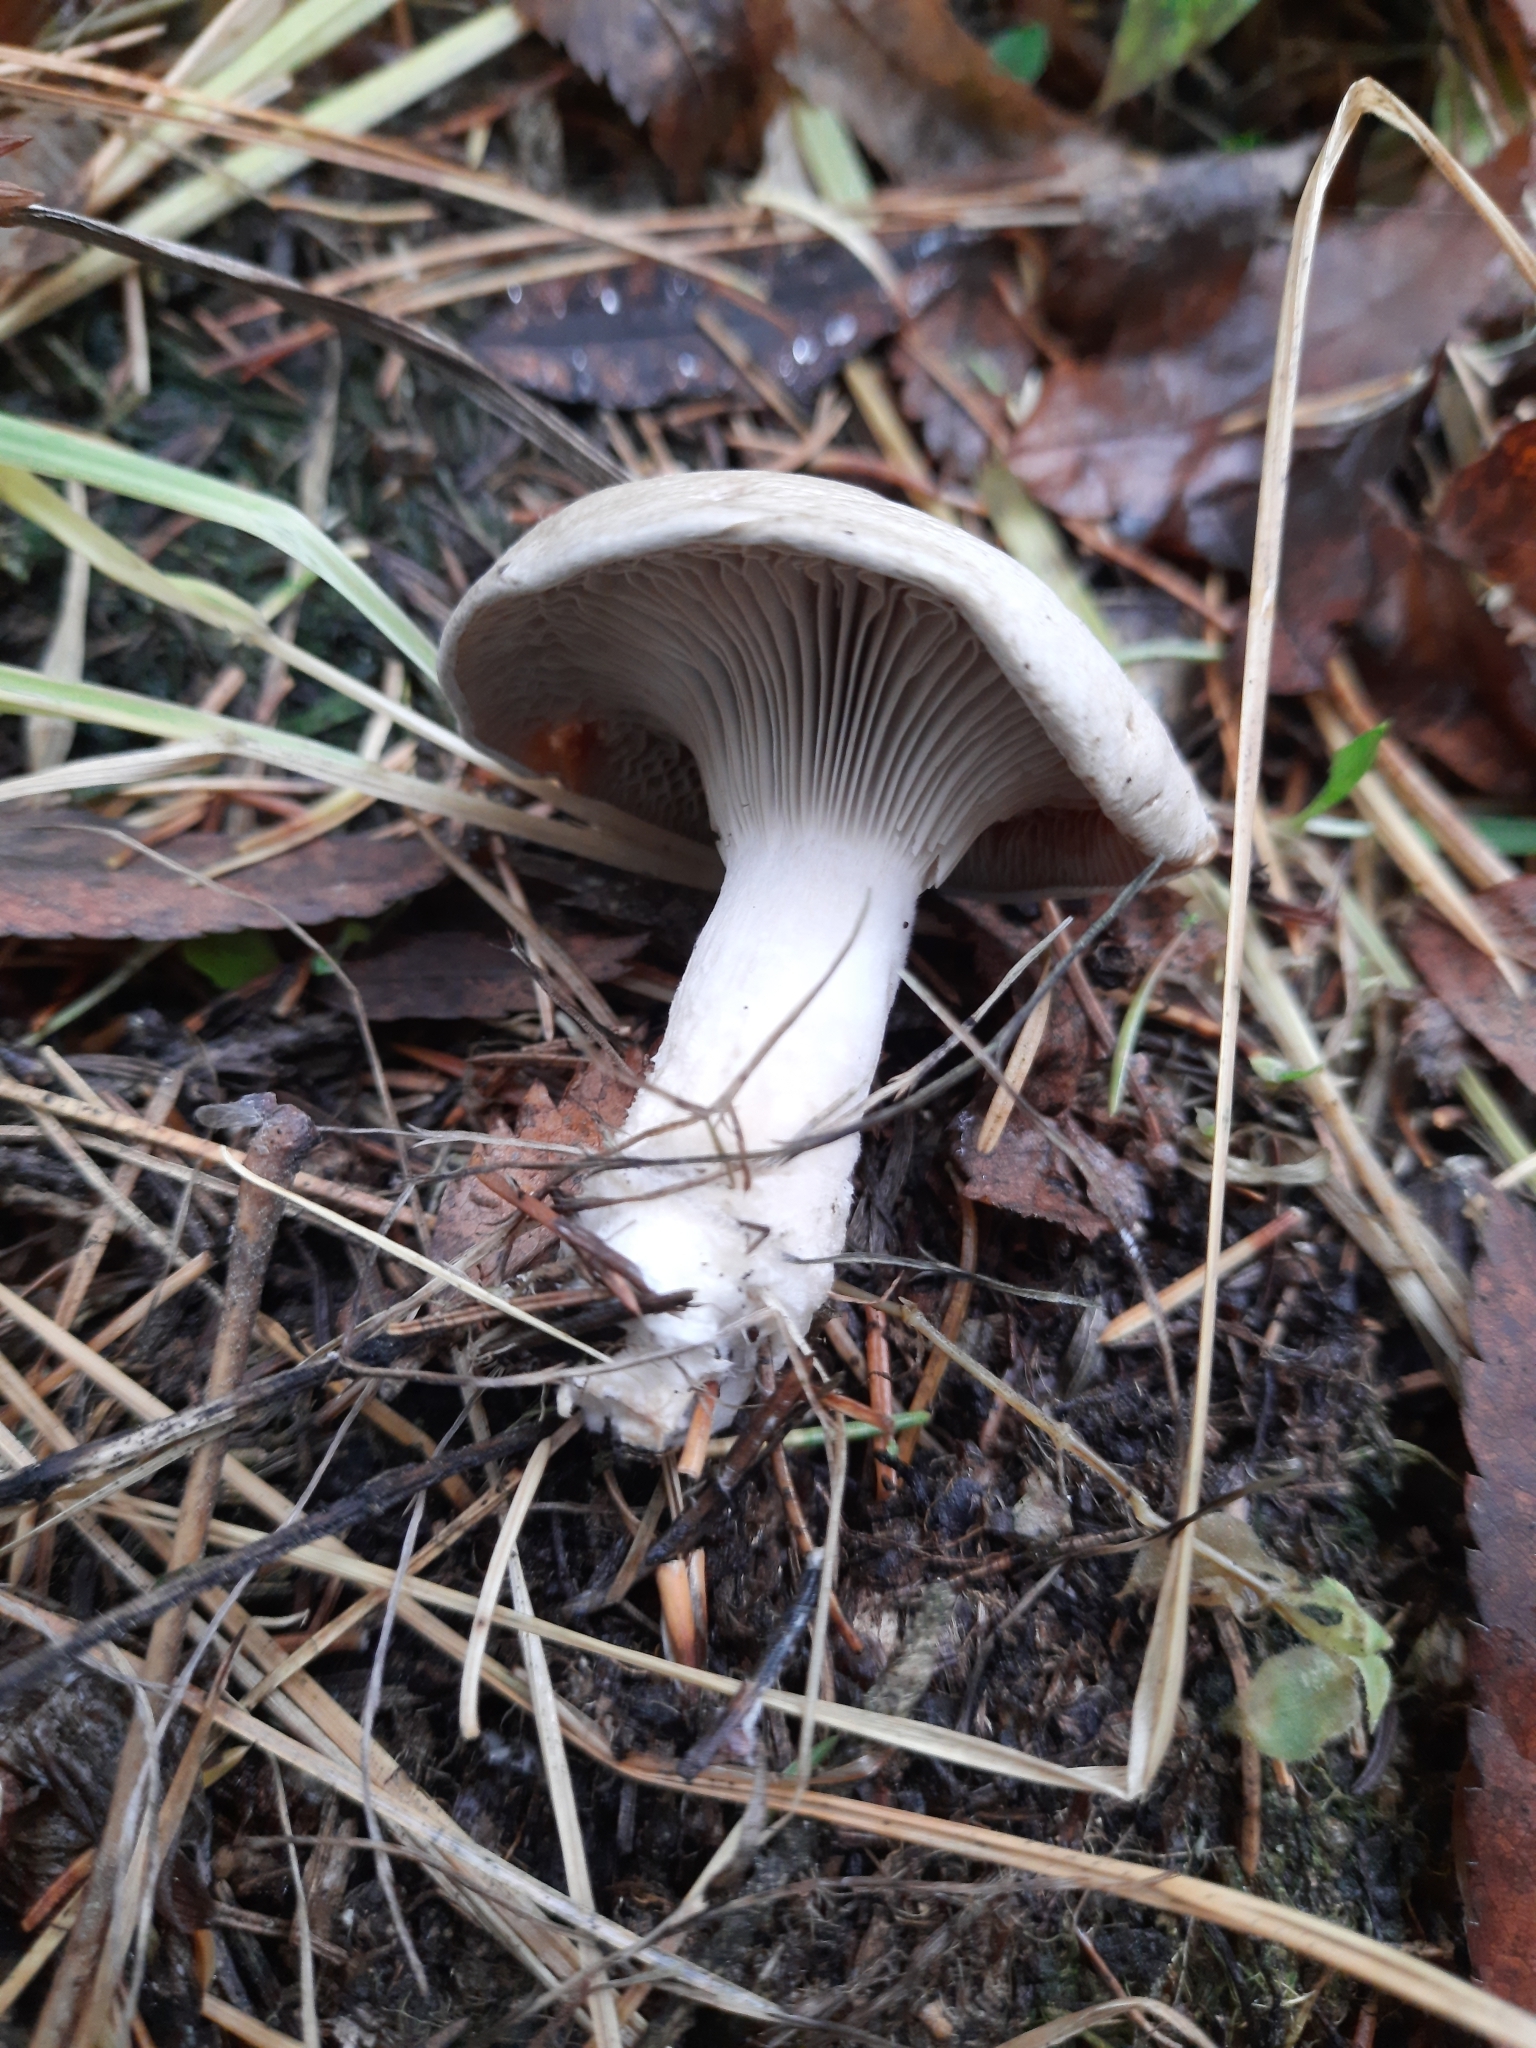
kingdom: Fungi
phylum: Basidiomycota
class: Agaricomycetes
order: Agaricales
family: Tricholomataceae
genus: Clitocybe
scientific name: Clitocybe nebularis
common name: Clouded agaric
